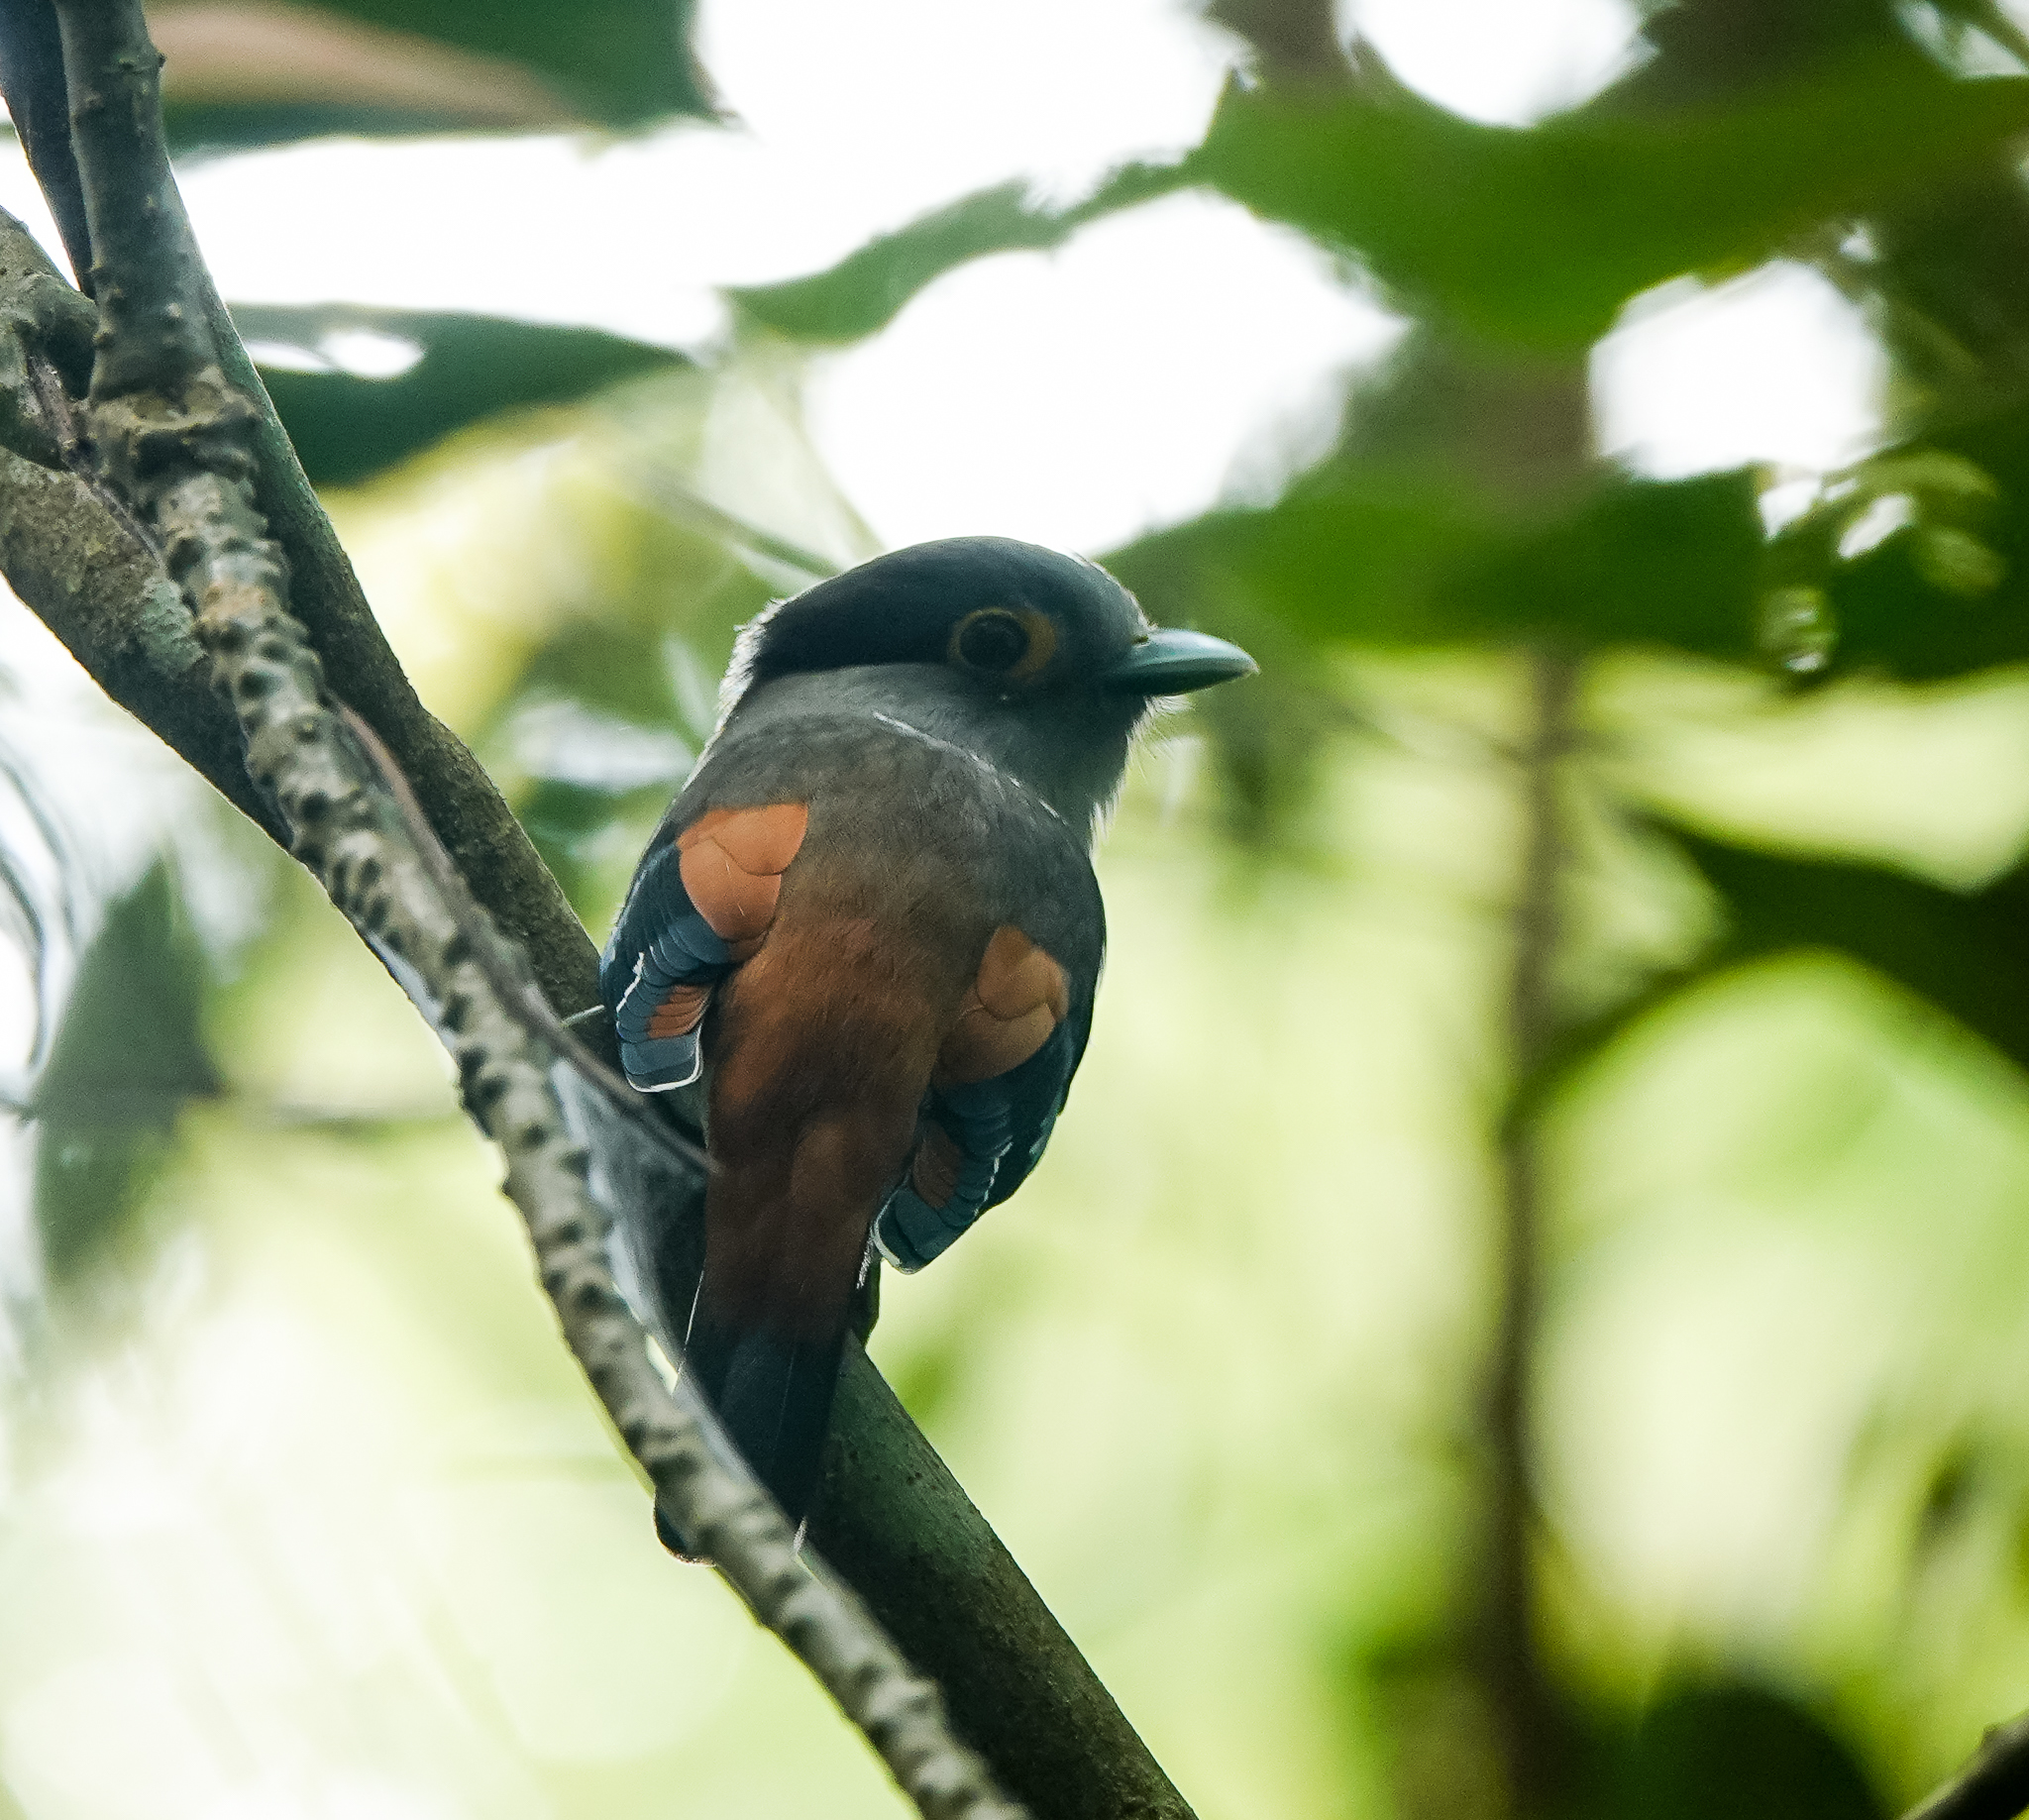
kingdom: Animalia
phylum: Chordata
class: Aves
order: Passeriformes
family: Eurylaimidae
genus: Serilophus
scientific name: Serilophus lunatus
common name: Silver-breasted broadbill
